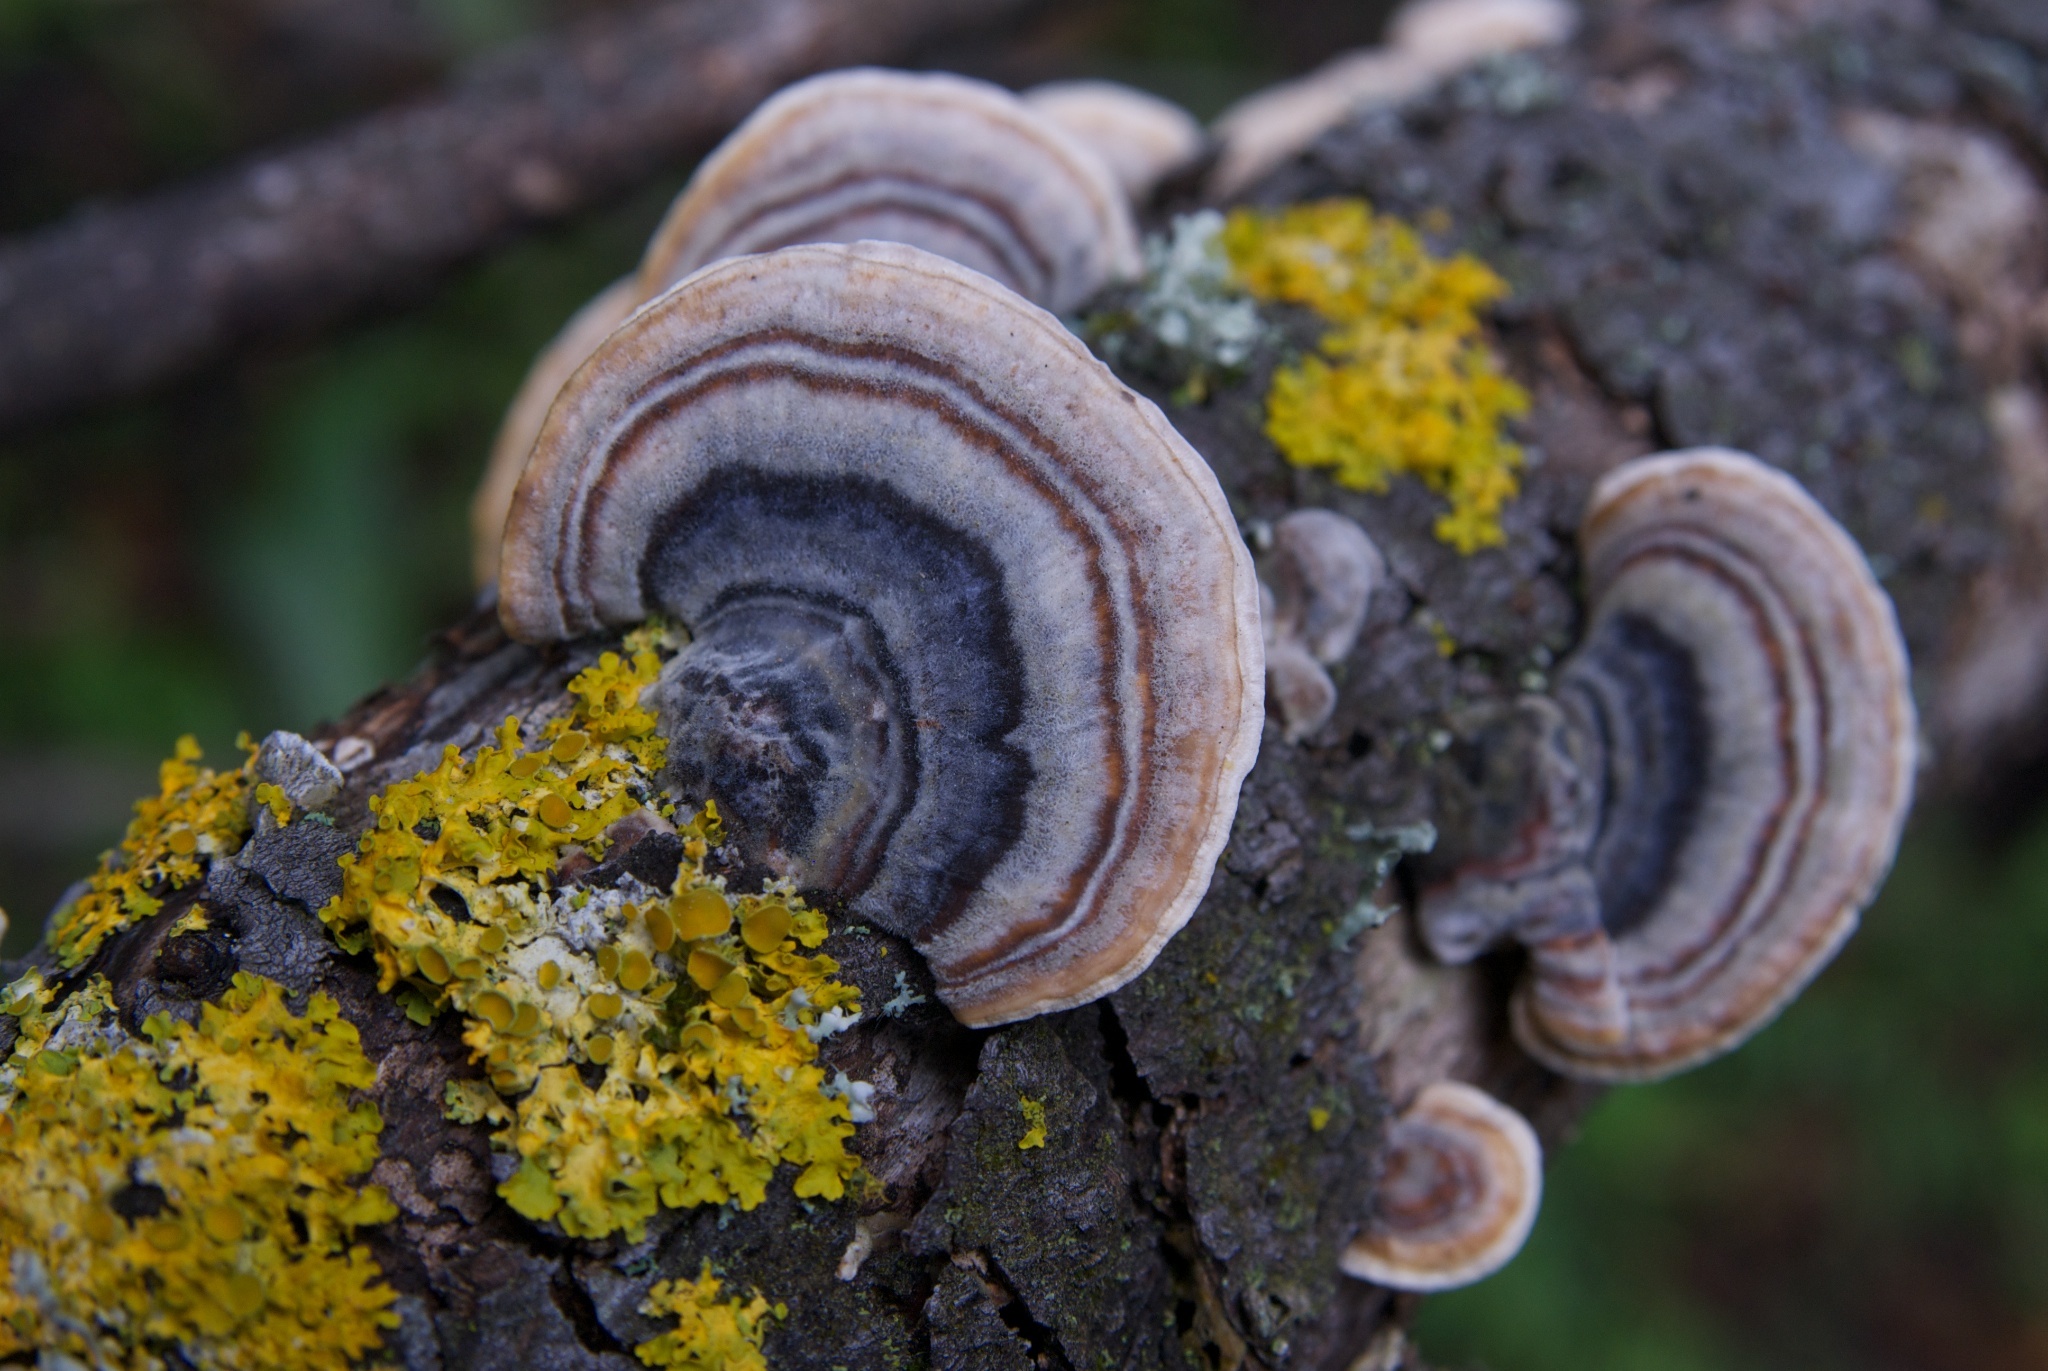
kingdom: Fungi
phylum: Basidiomycota
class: Agaricomycetes
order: Polyporales
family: Polyporaceae
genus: Trametes
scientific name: Trametes versicolor
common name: Turkeytail
